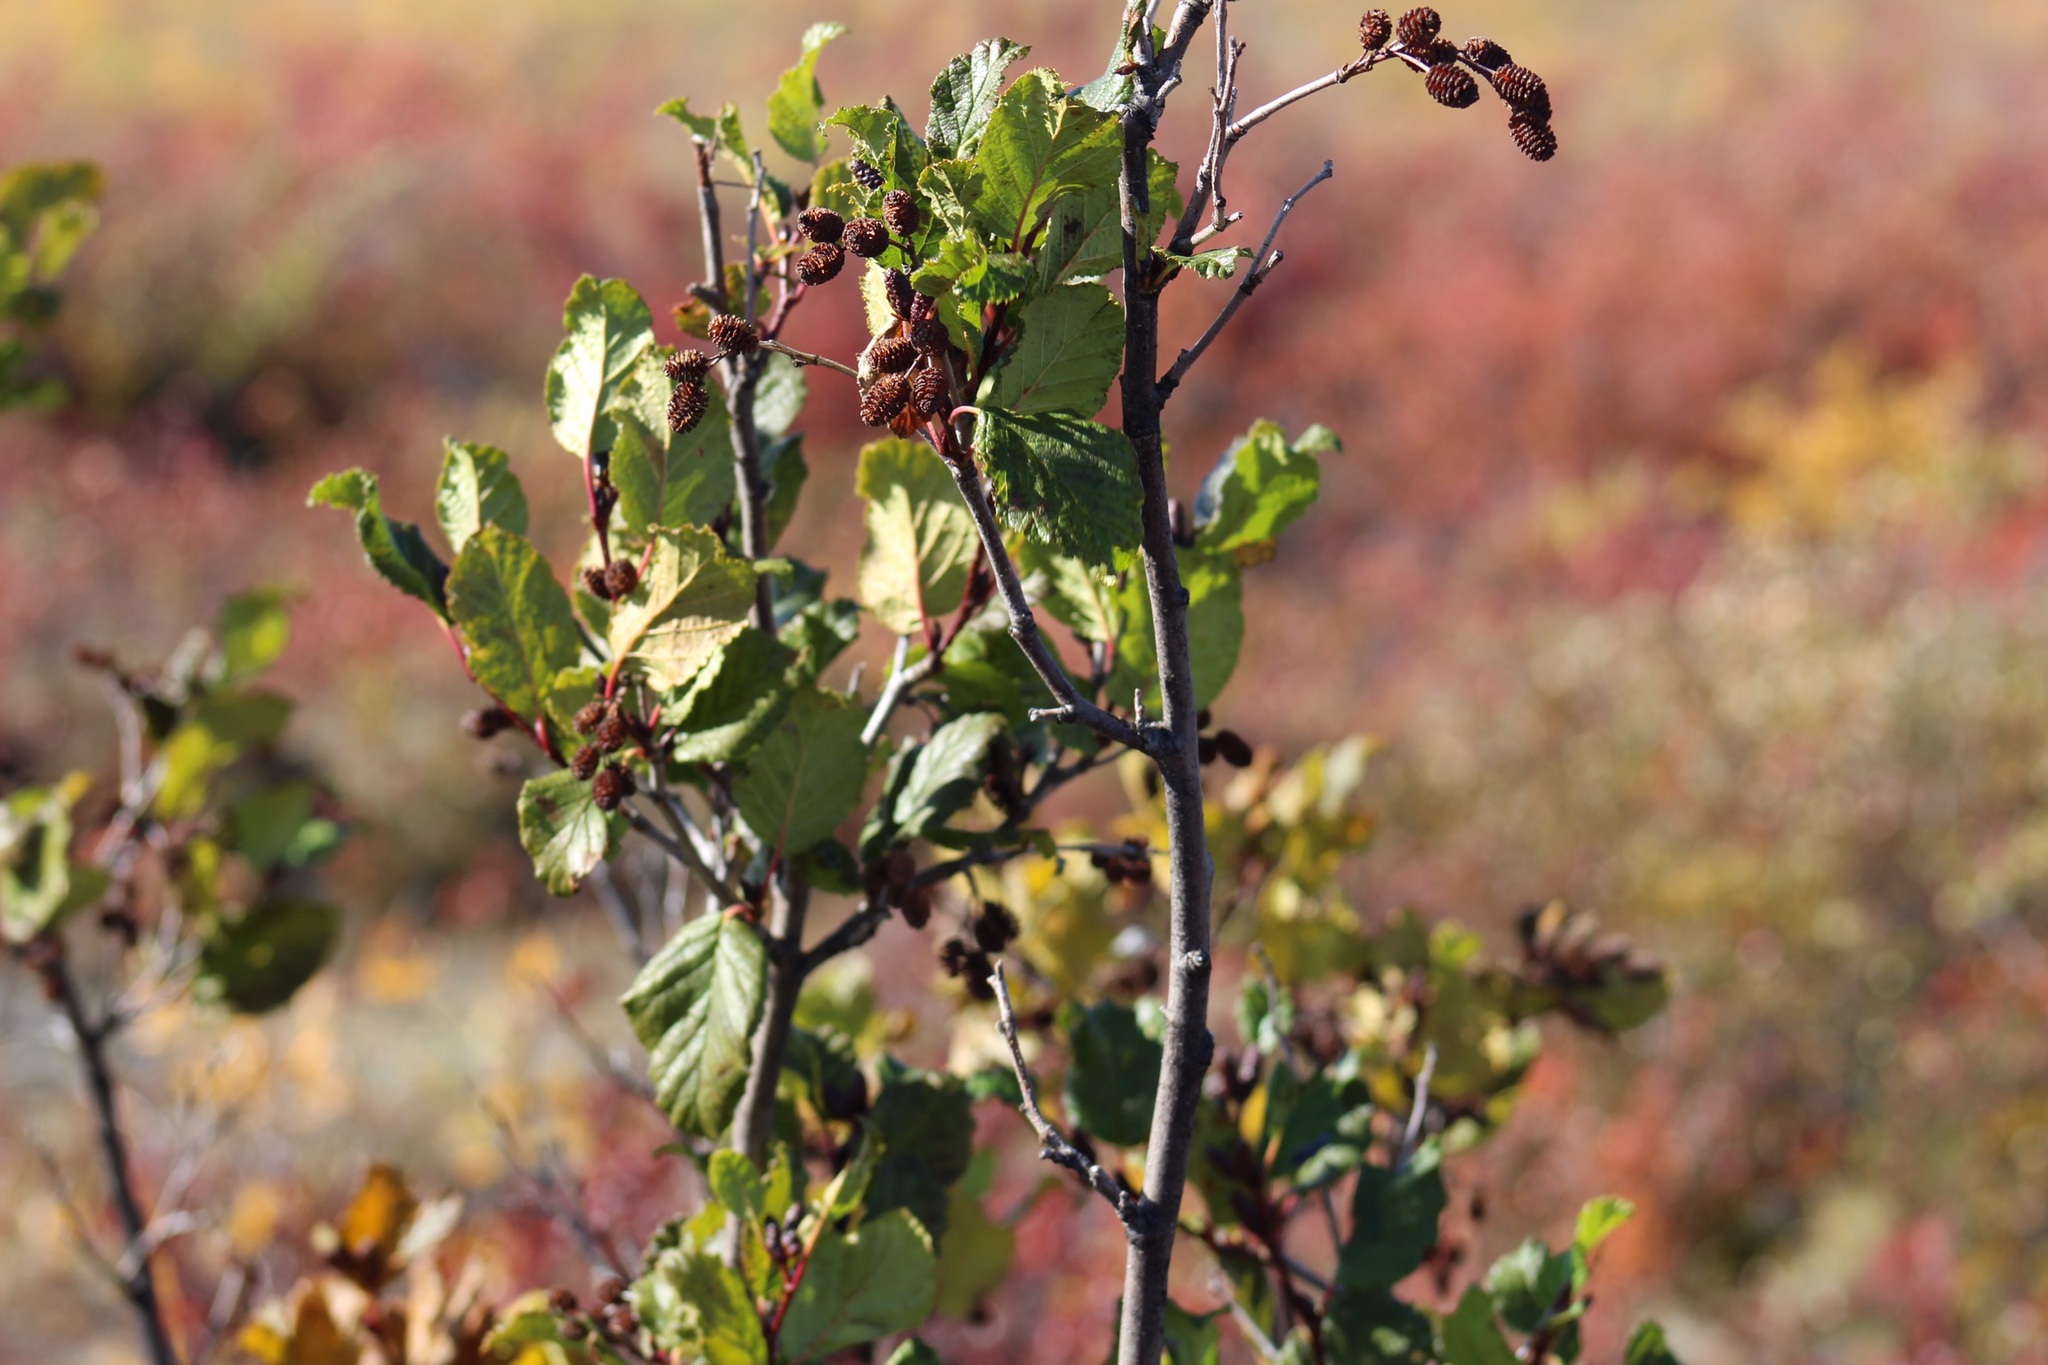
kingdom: Plantae
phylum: Tracheophyta
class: Magnoliopsida
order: Fagales
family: Betulaceae
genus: Alnus
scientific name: Alnus alnobetula
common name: Green alder
